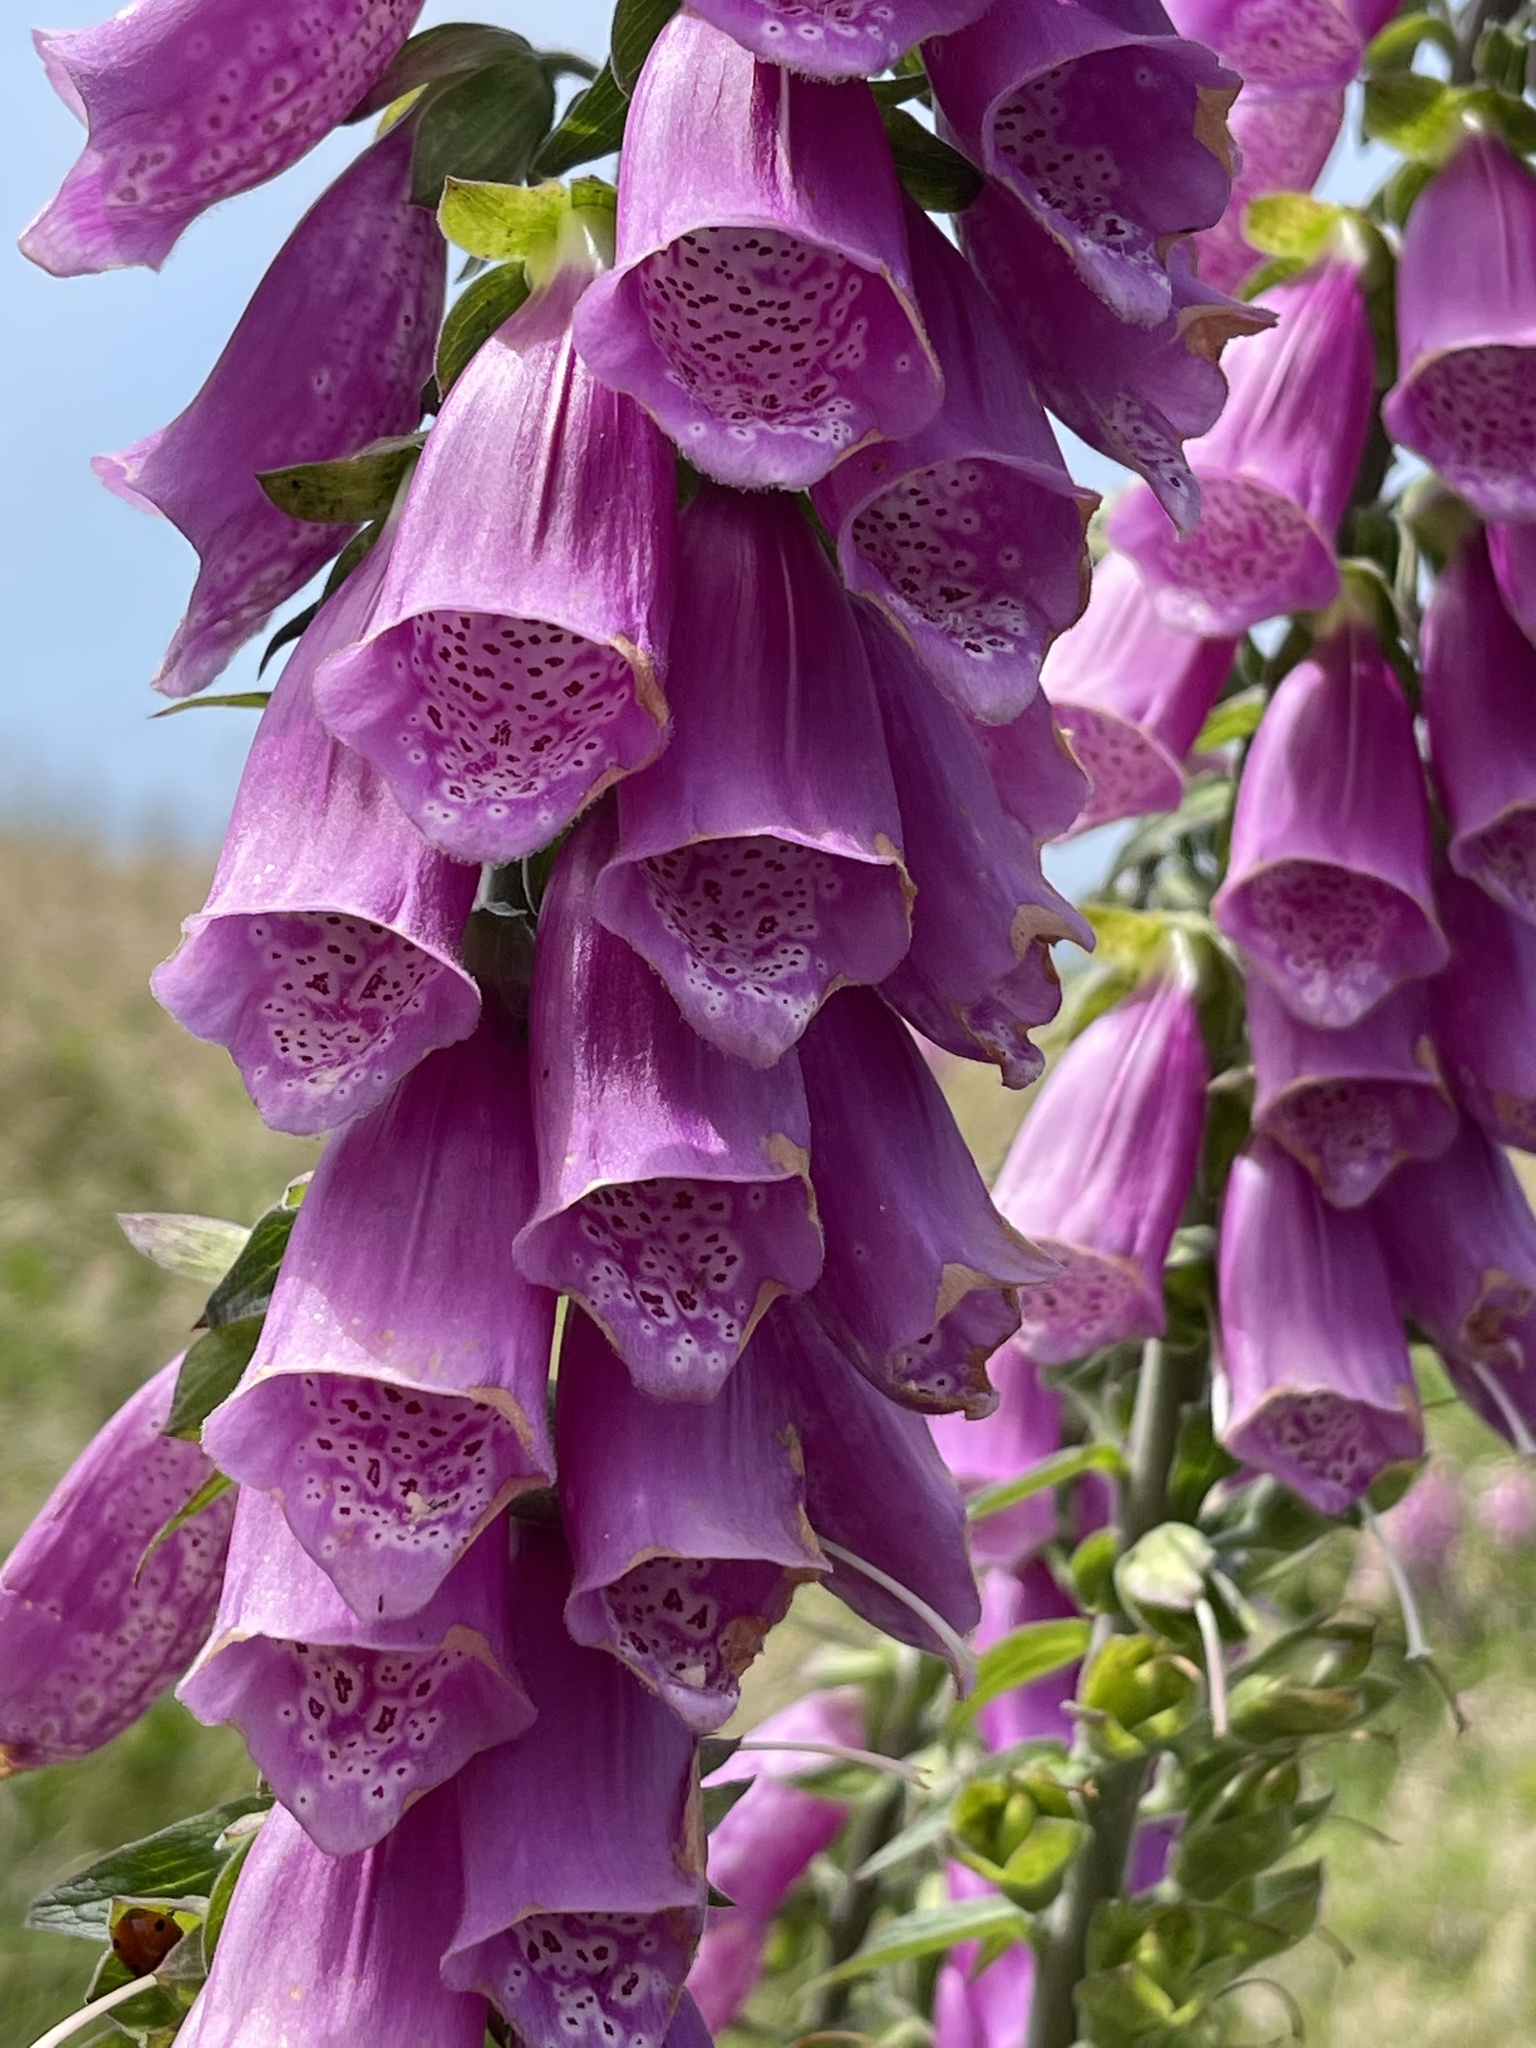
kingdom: Plantae
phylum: Tracheophyta
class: Magnoliopsida
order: Lamiales
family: Plantaginaceae
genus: Digitalis
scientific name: Digitalis purpurea
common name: Foxglove
